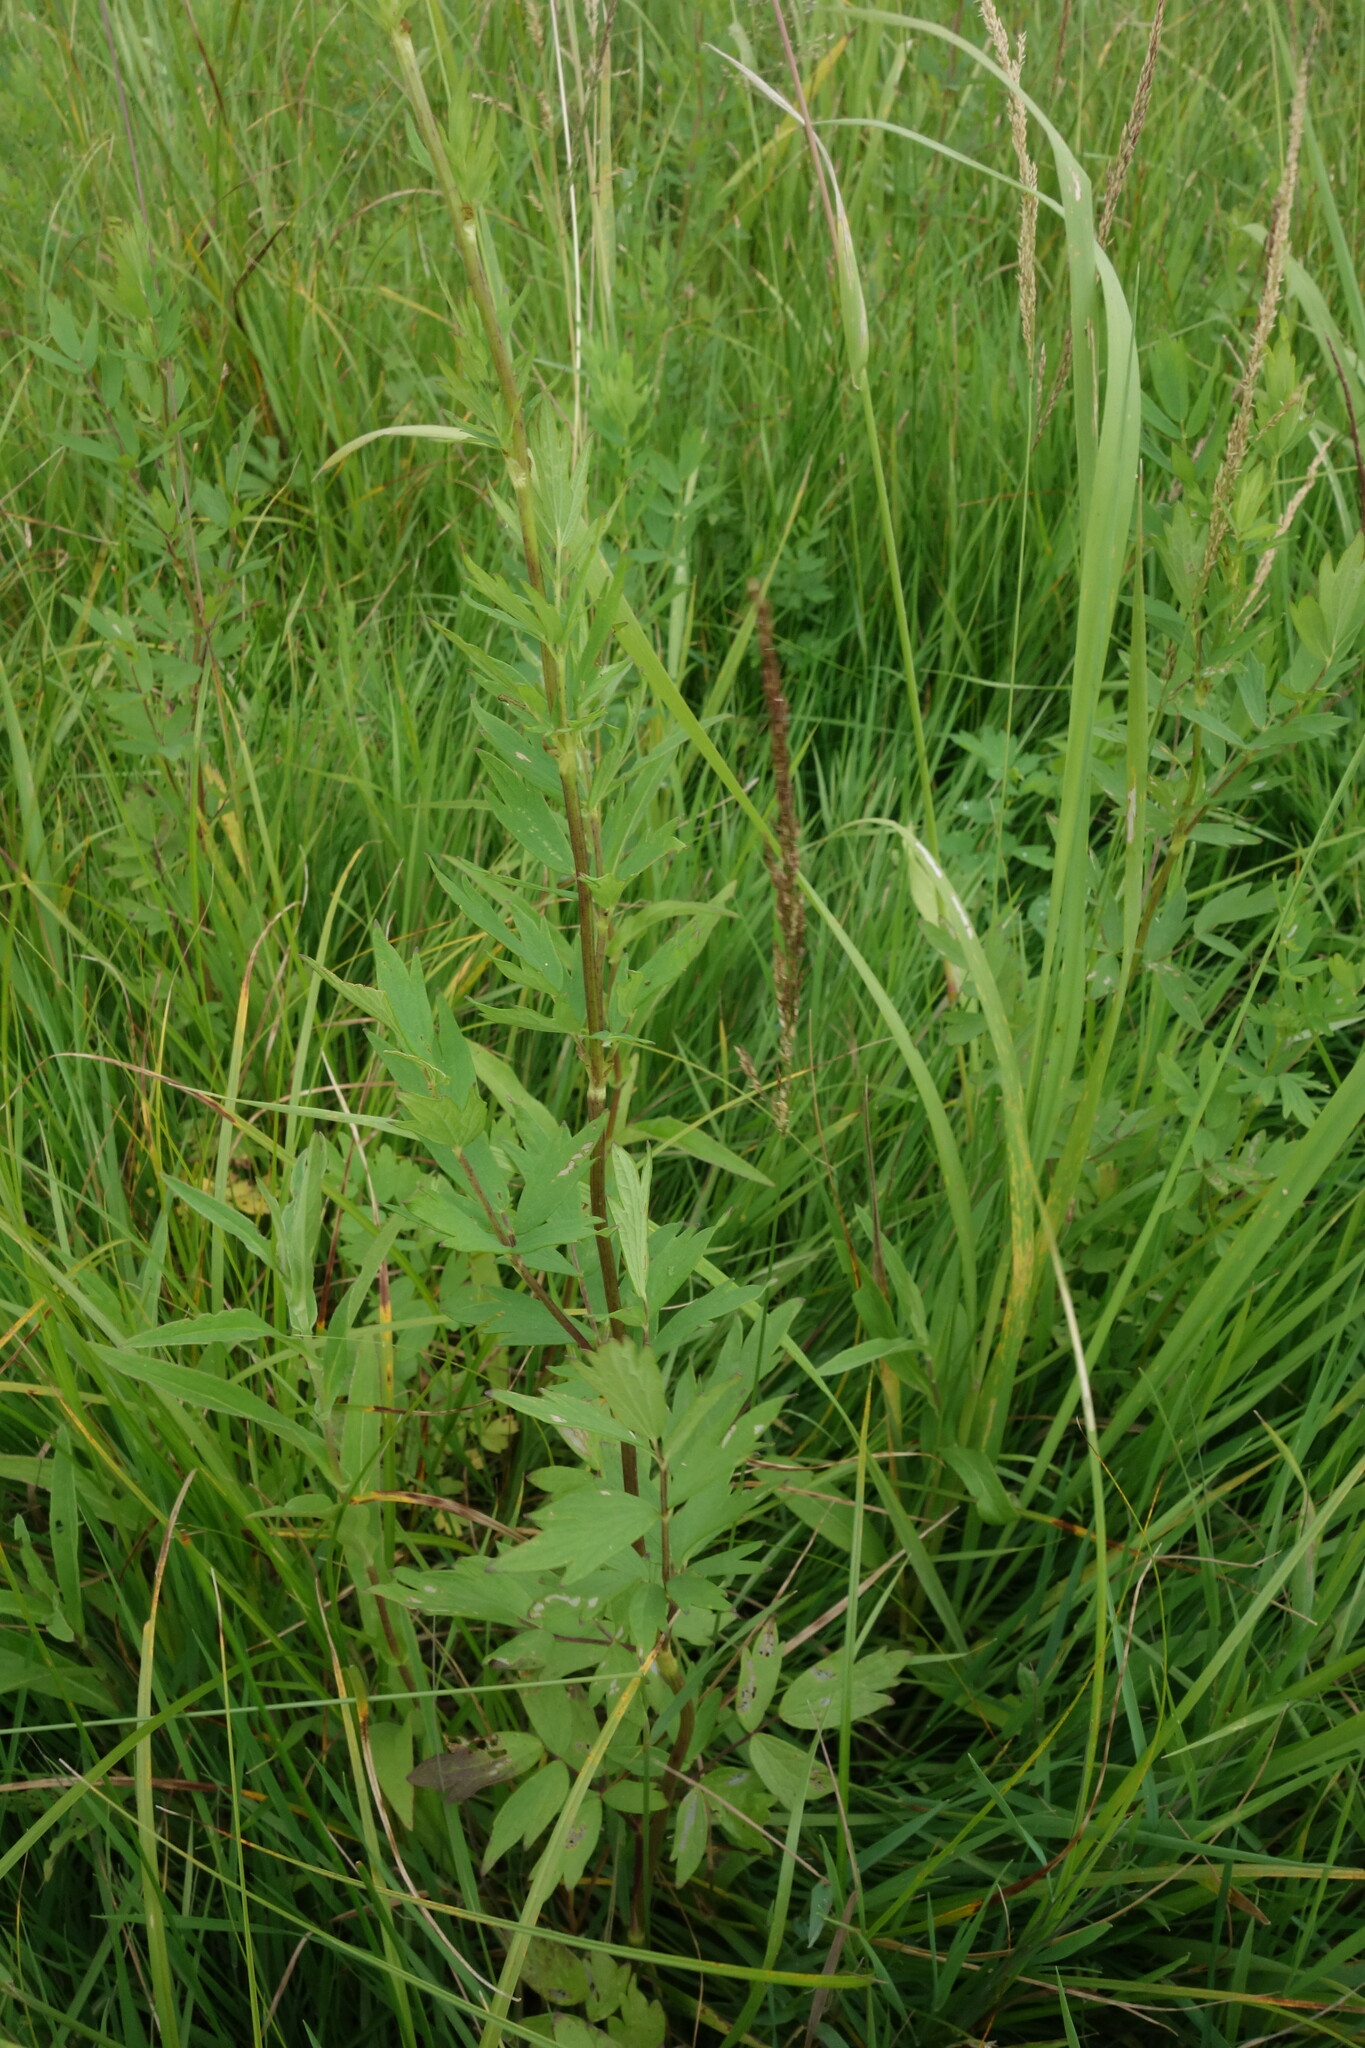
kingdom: Plantae
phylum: Tracheophyta
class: Magnoliopsida
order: Ranunculales
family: Ranunculaceae
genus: Thalictrum
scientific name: Thalictrum flavum
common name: Common meadow-rue
